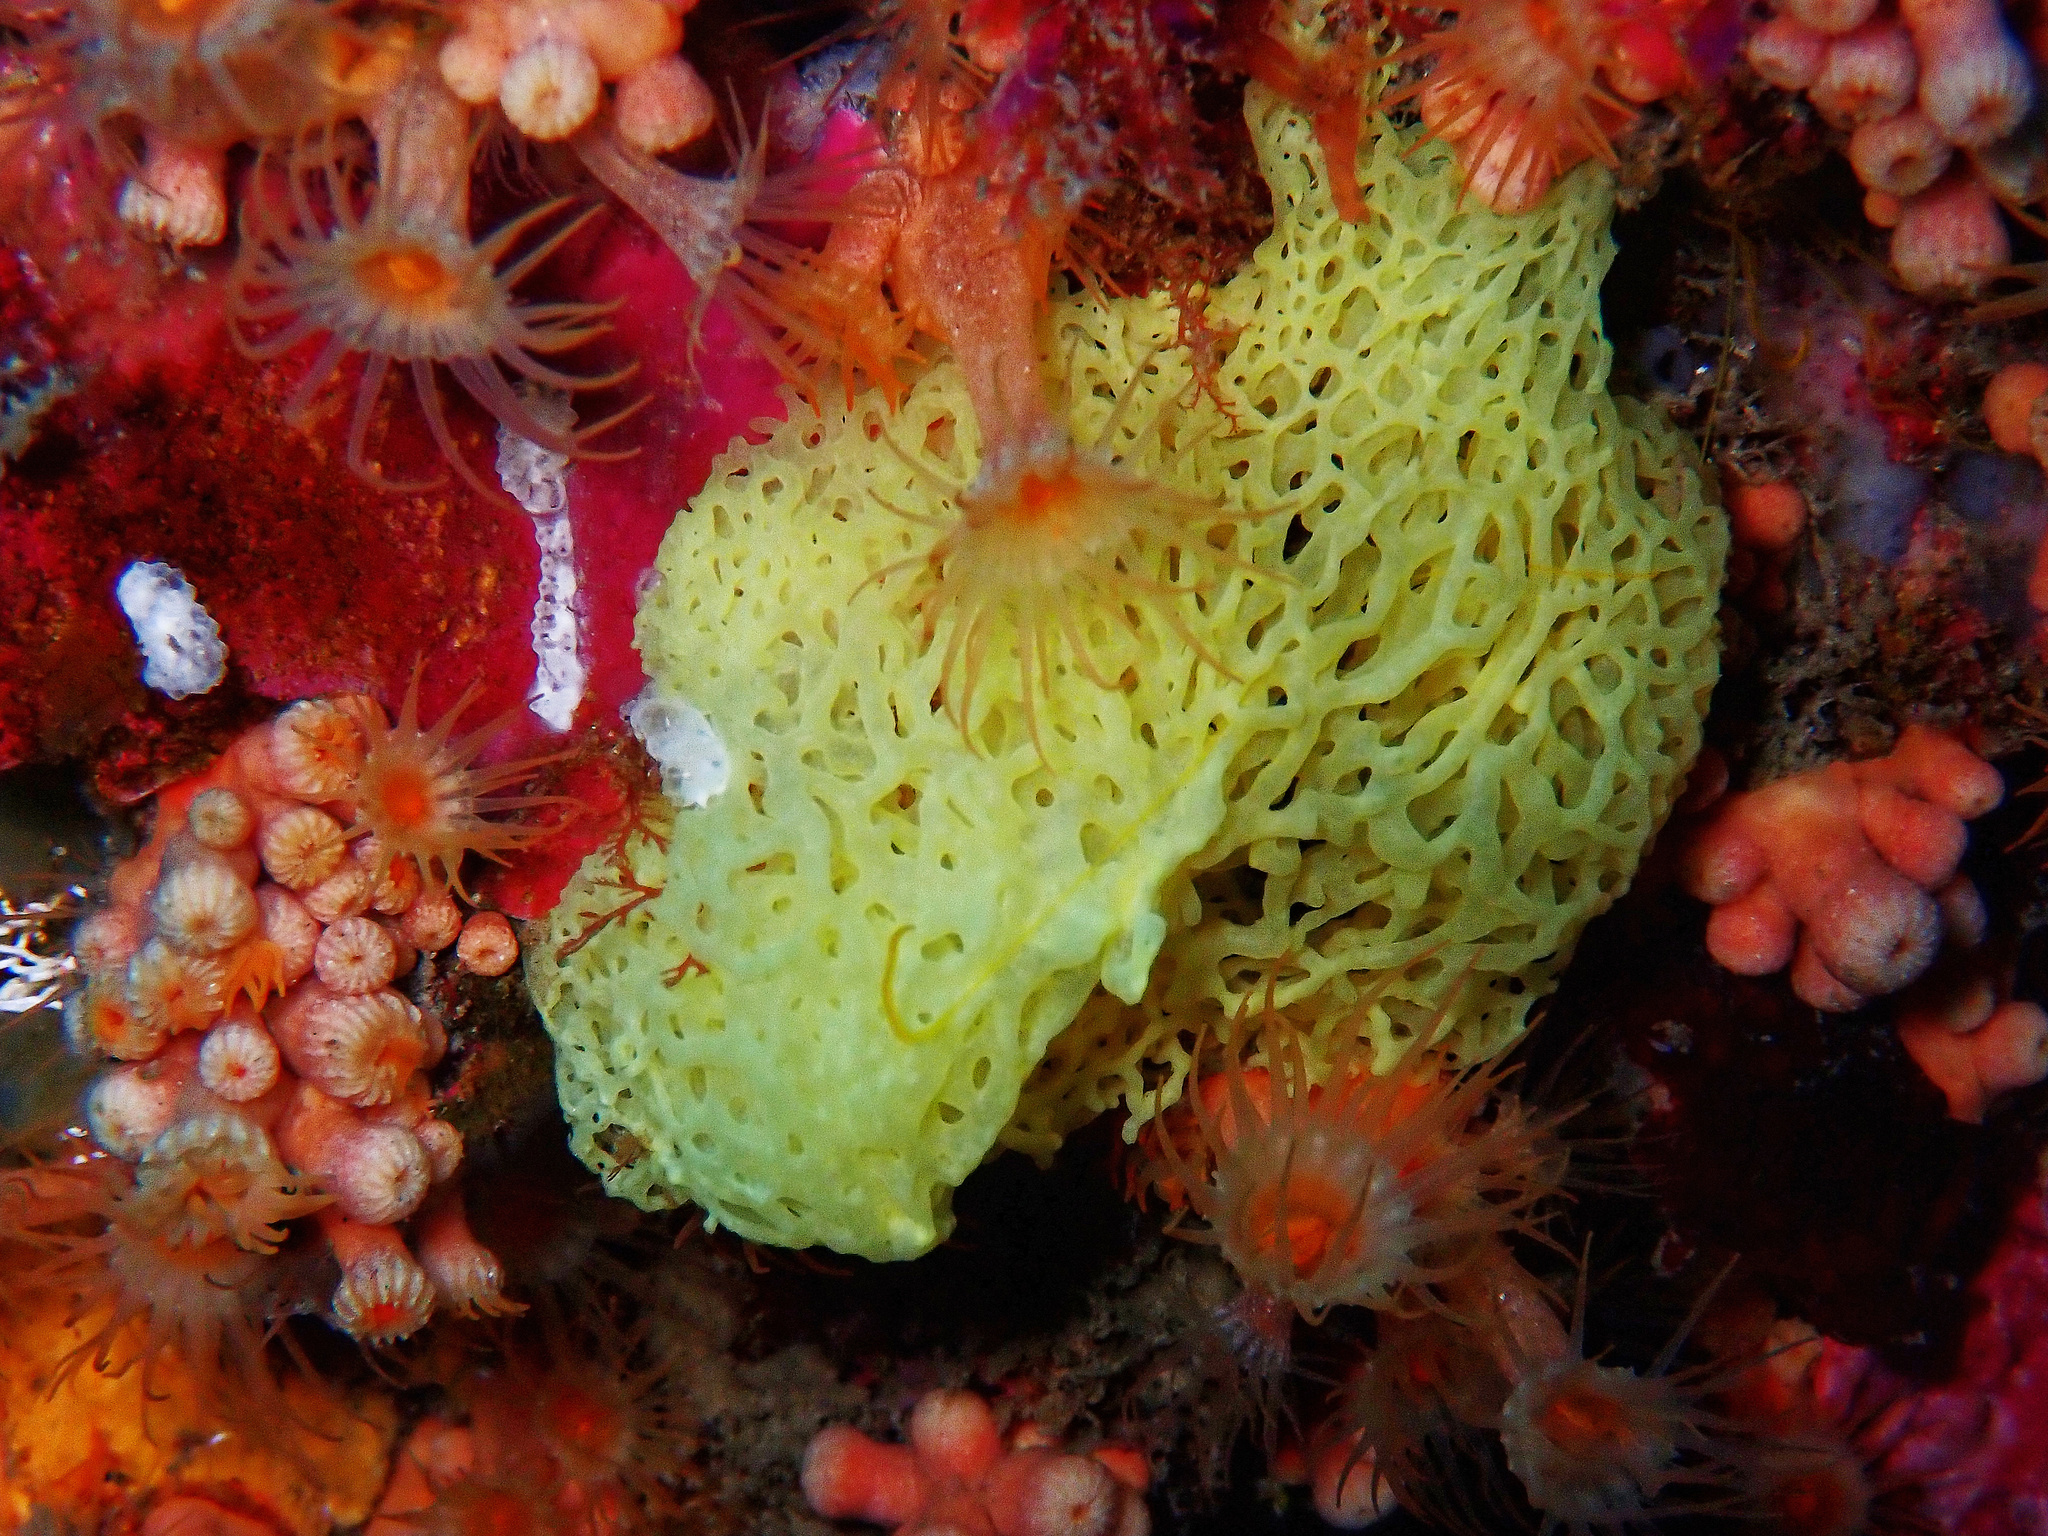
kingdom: Animalia
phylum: Porifera
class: Calcarea
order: Clathrinida
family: Clathrinidae
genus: Clathrina
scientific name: Clathrina clathrus
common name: Yellow clathrina
